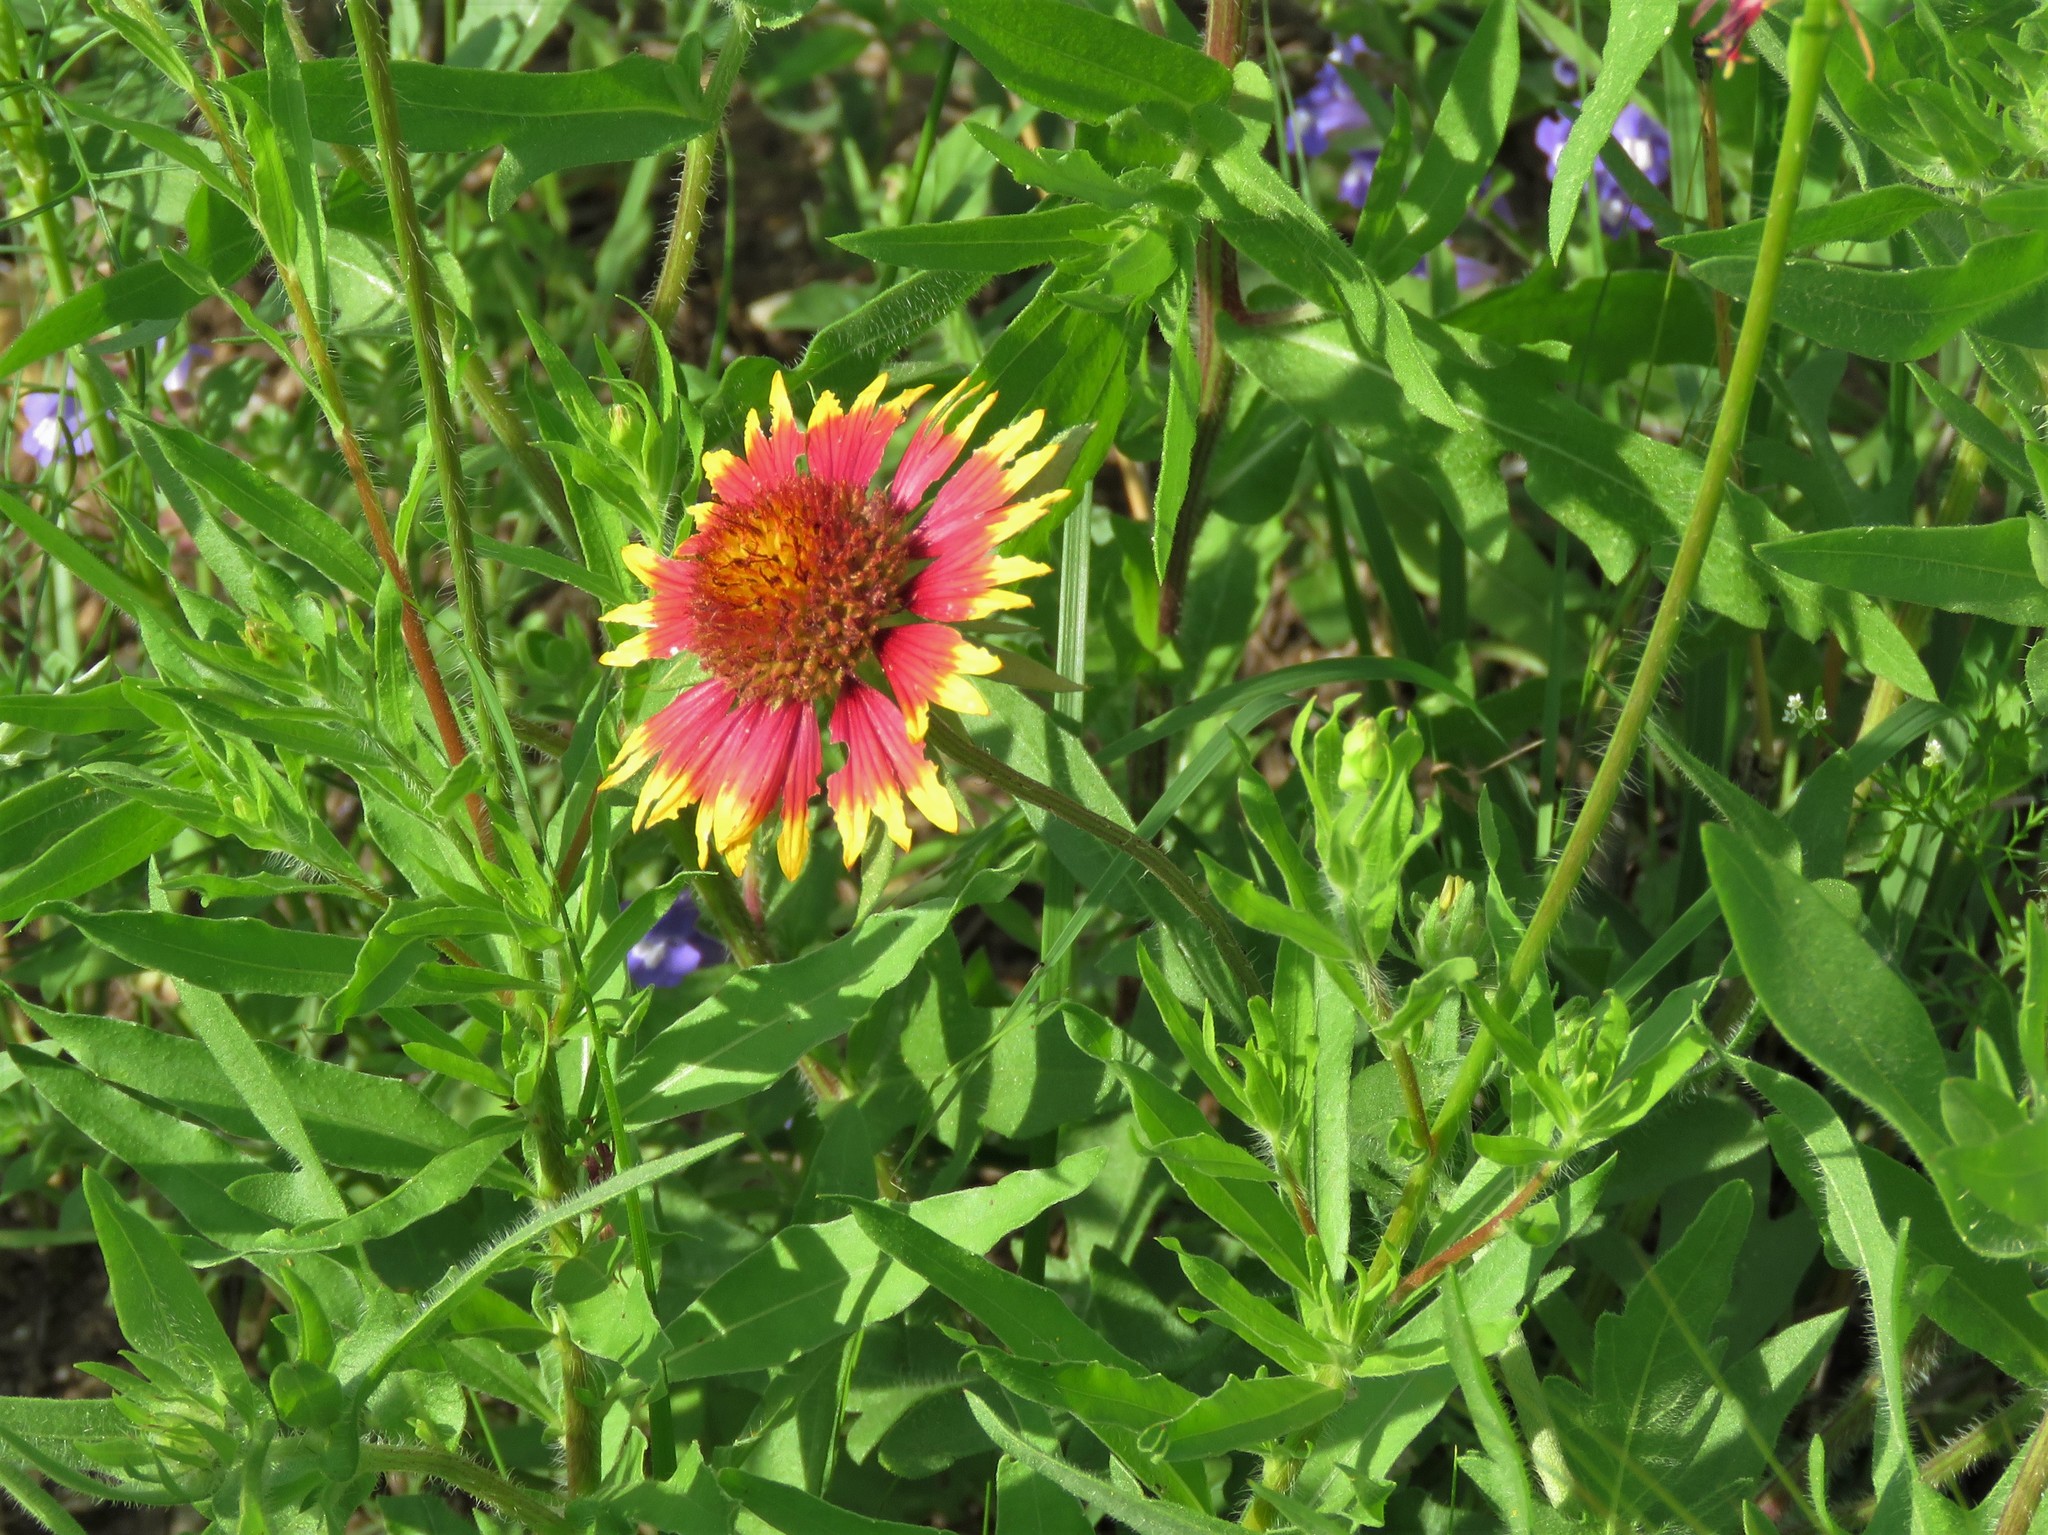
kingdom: Plantae
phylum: Tracheophyta
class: Magnoliopsida
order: Asterales
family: Asteraceae
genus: Gaillardia
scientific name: Gaillardia pulchella
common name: Firewheel
